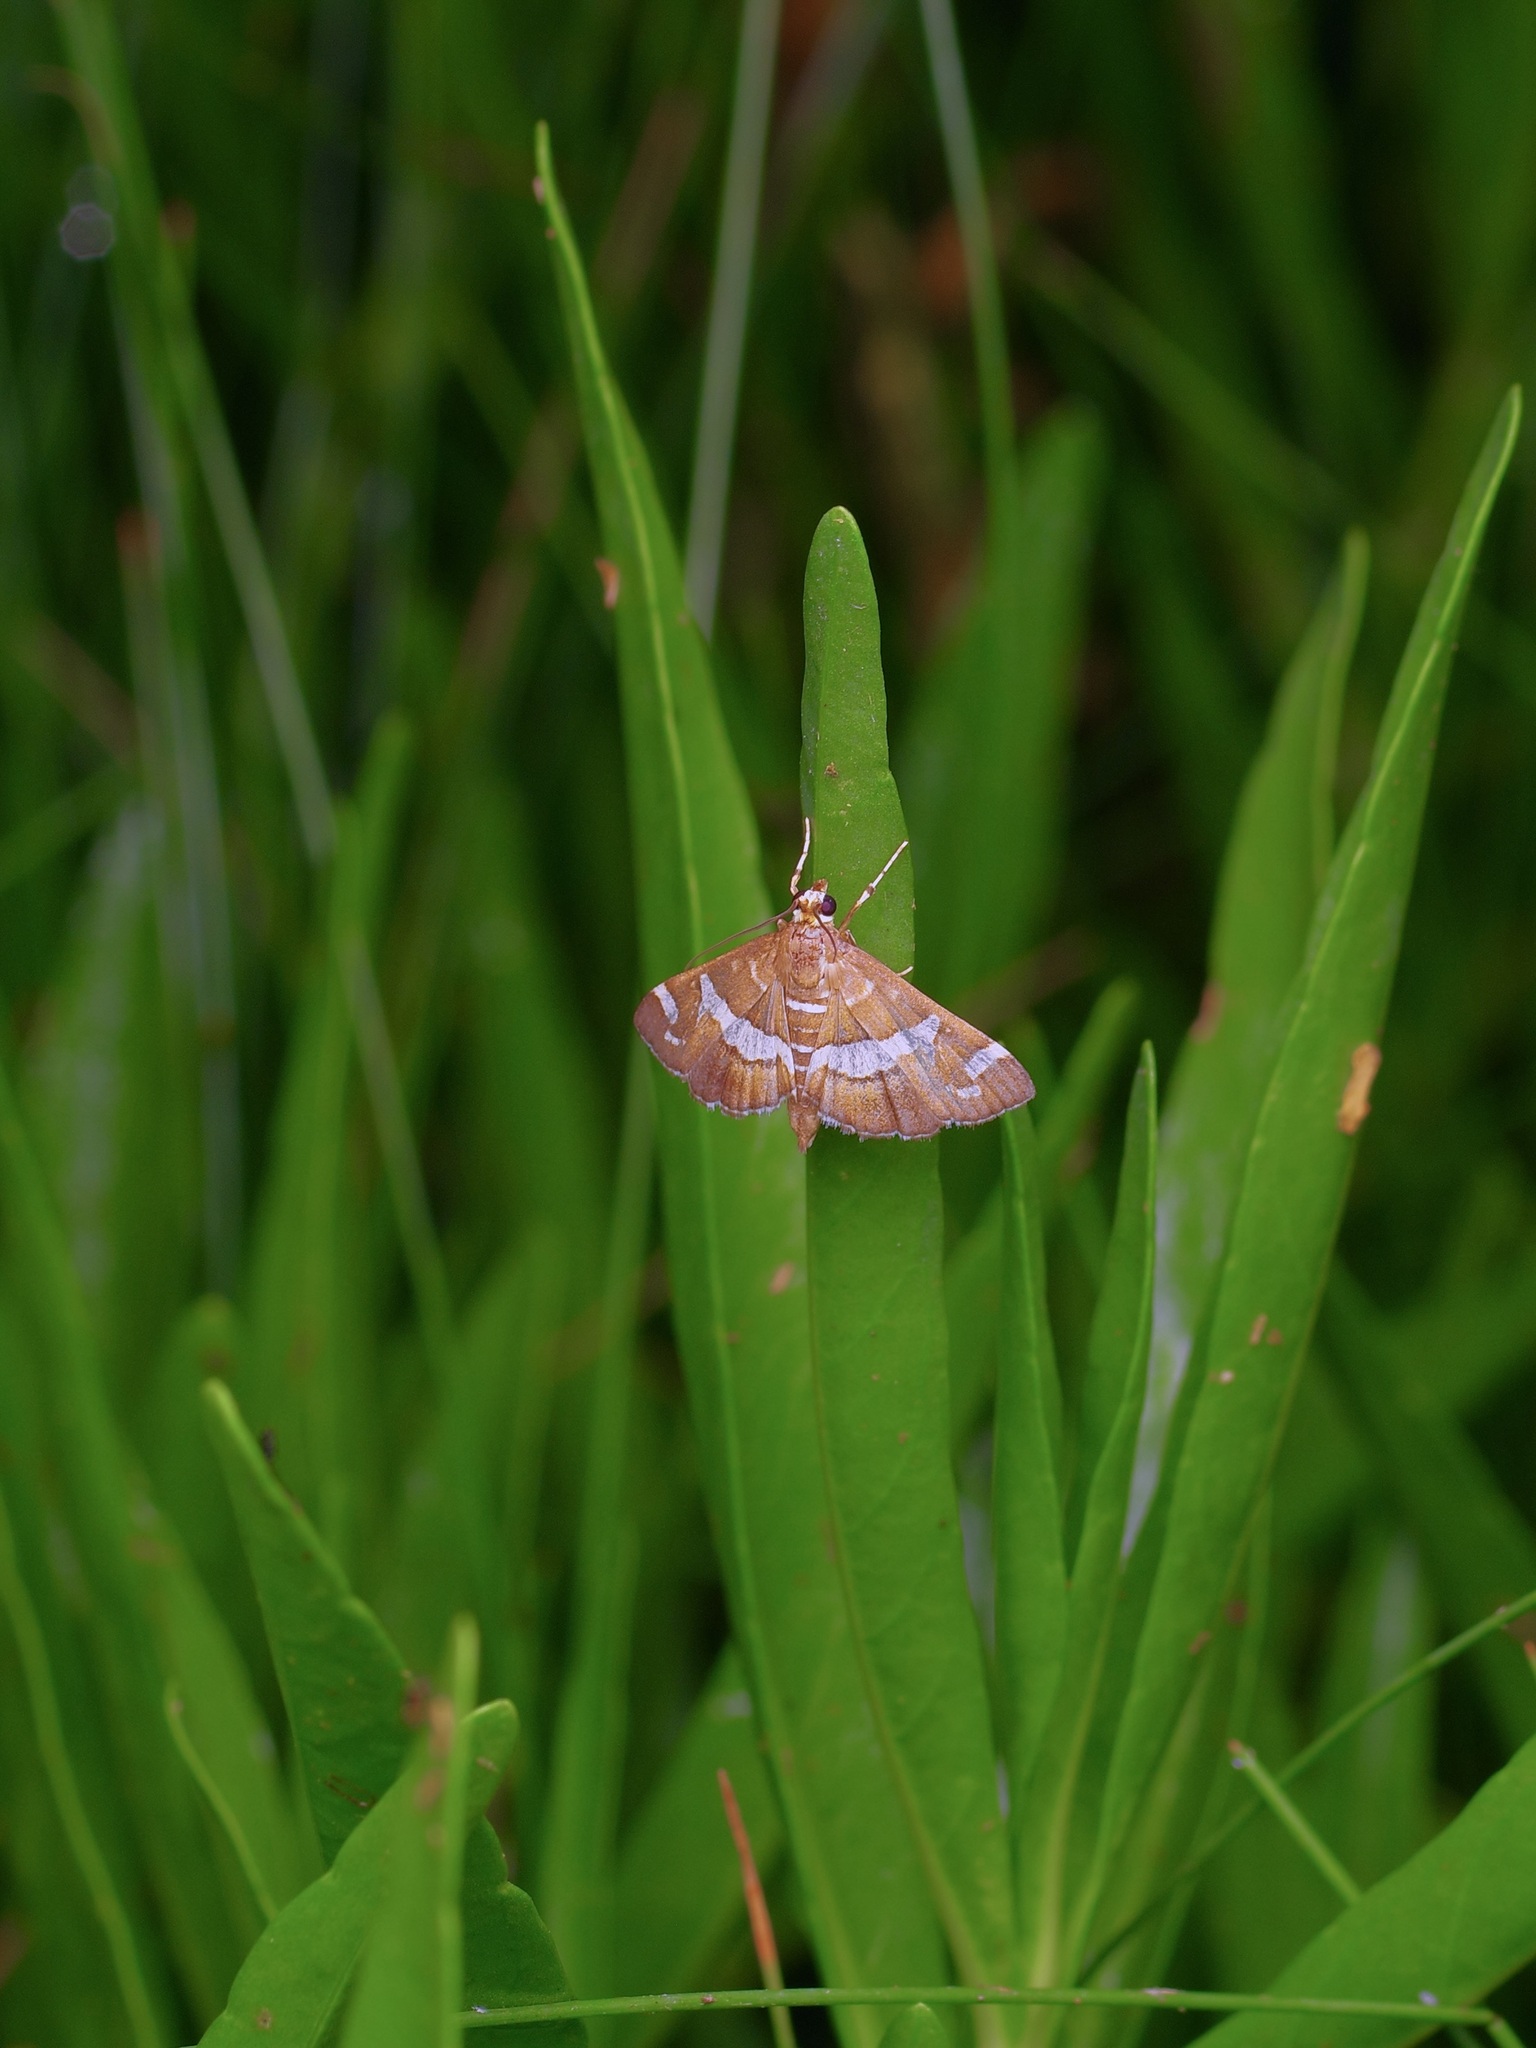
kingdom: Animalia
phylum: Arthropoda
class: Insecta
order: Lepidoptera
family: Crambidae
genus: Spoladea
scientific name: Spoladea recurvalis
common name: Beet webworm moth
